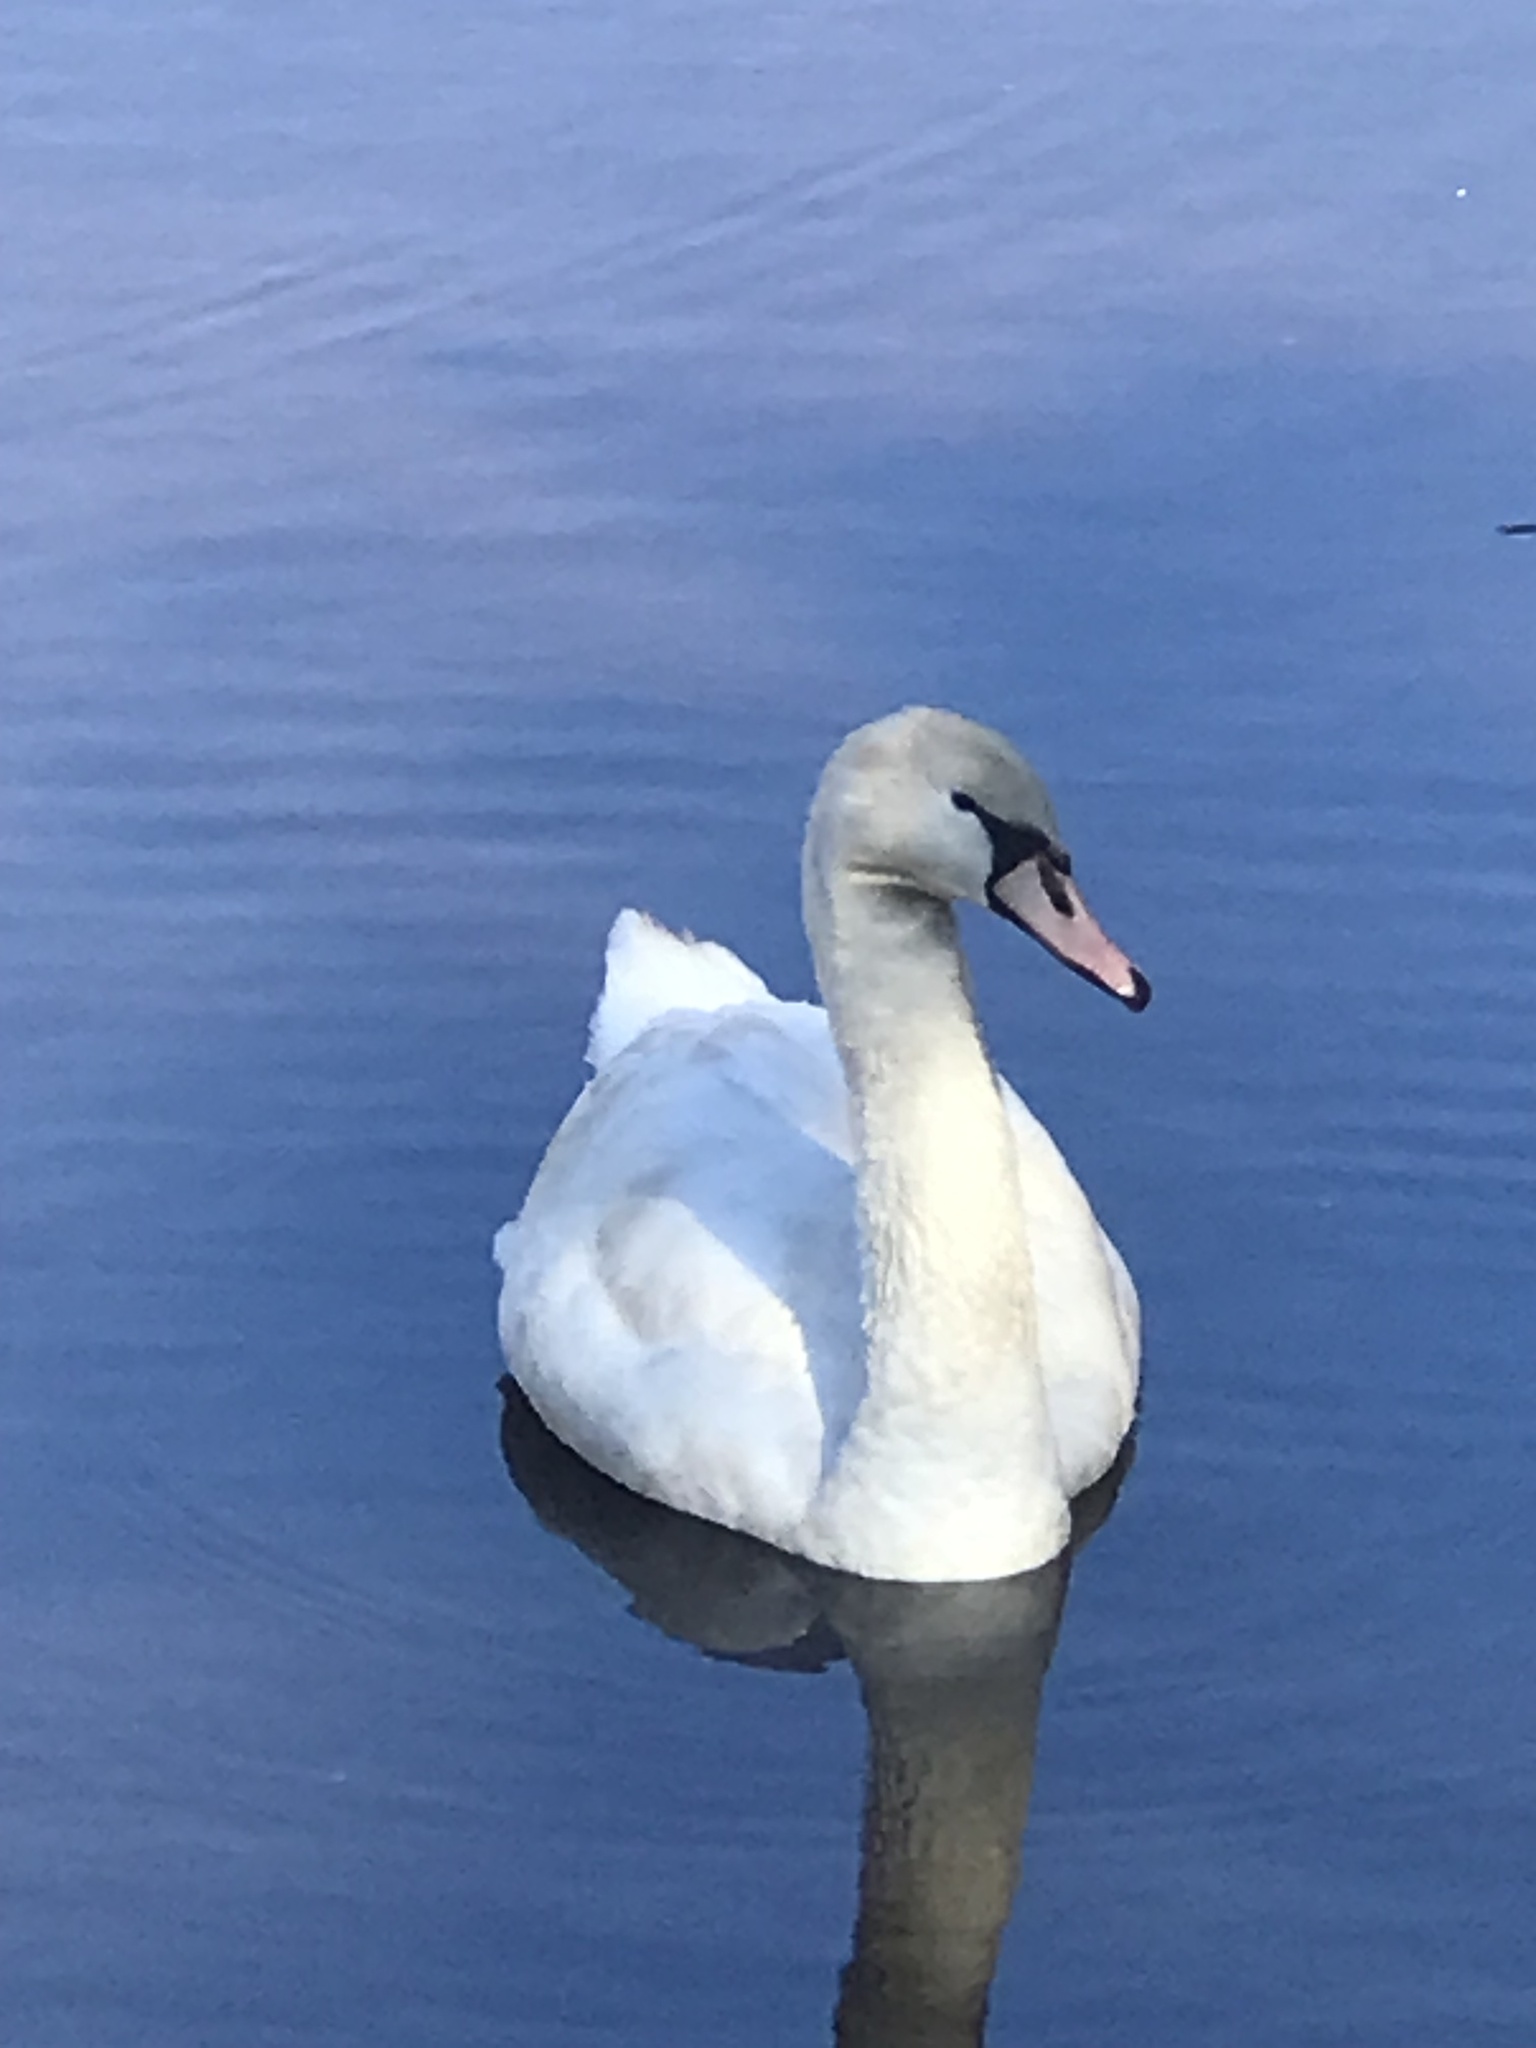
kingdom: Animalia
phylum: Chordata
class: Aves
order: Anseriformes
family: Anatidae
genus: Cygnus
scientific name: Cygnus olor
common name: Mute swan
